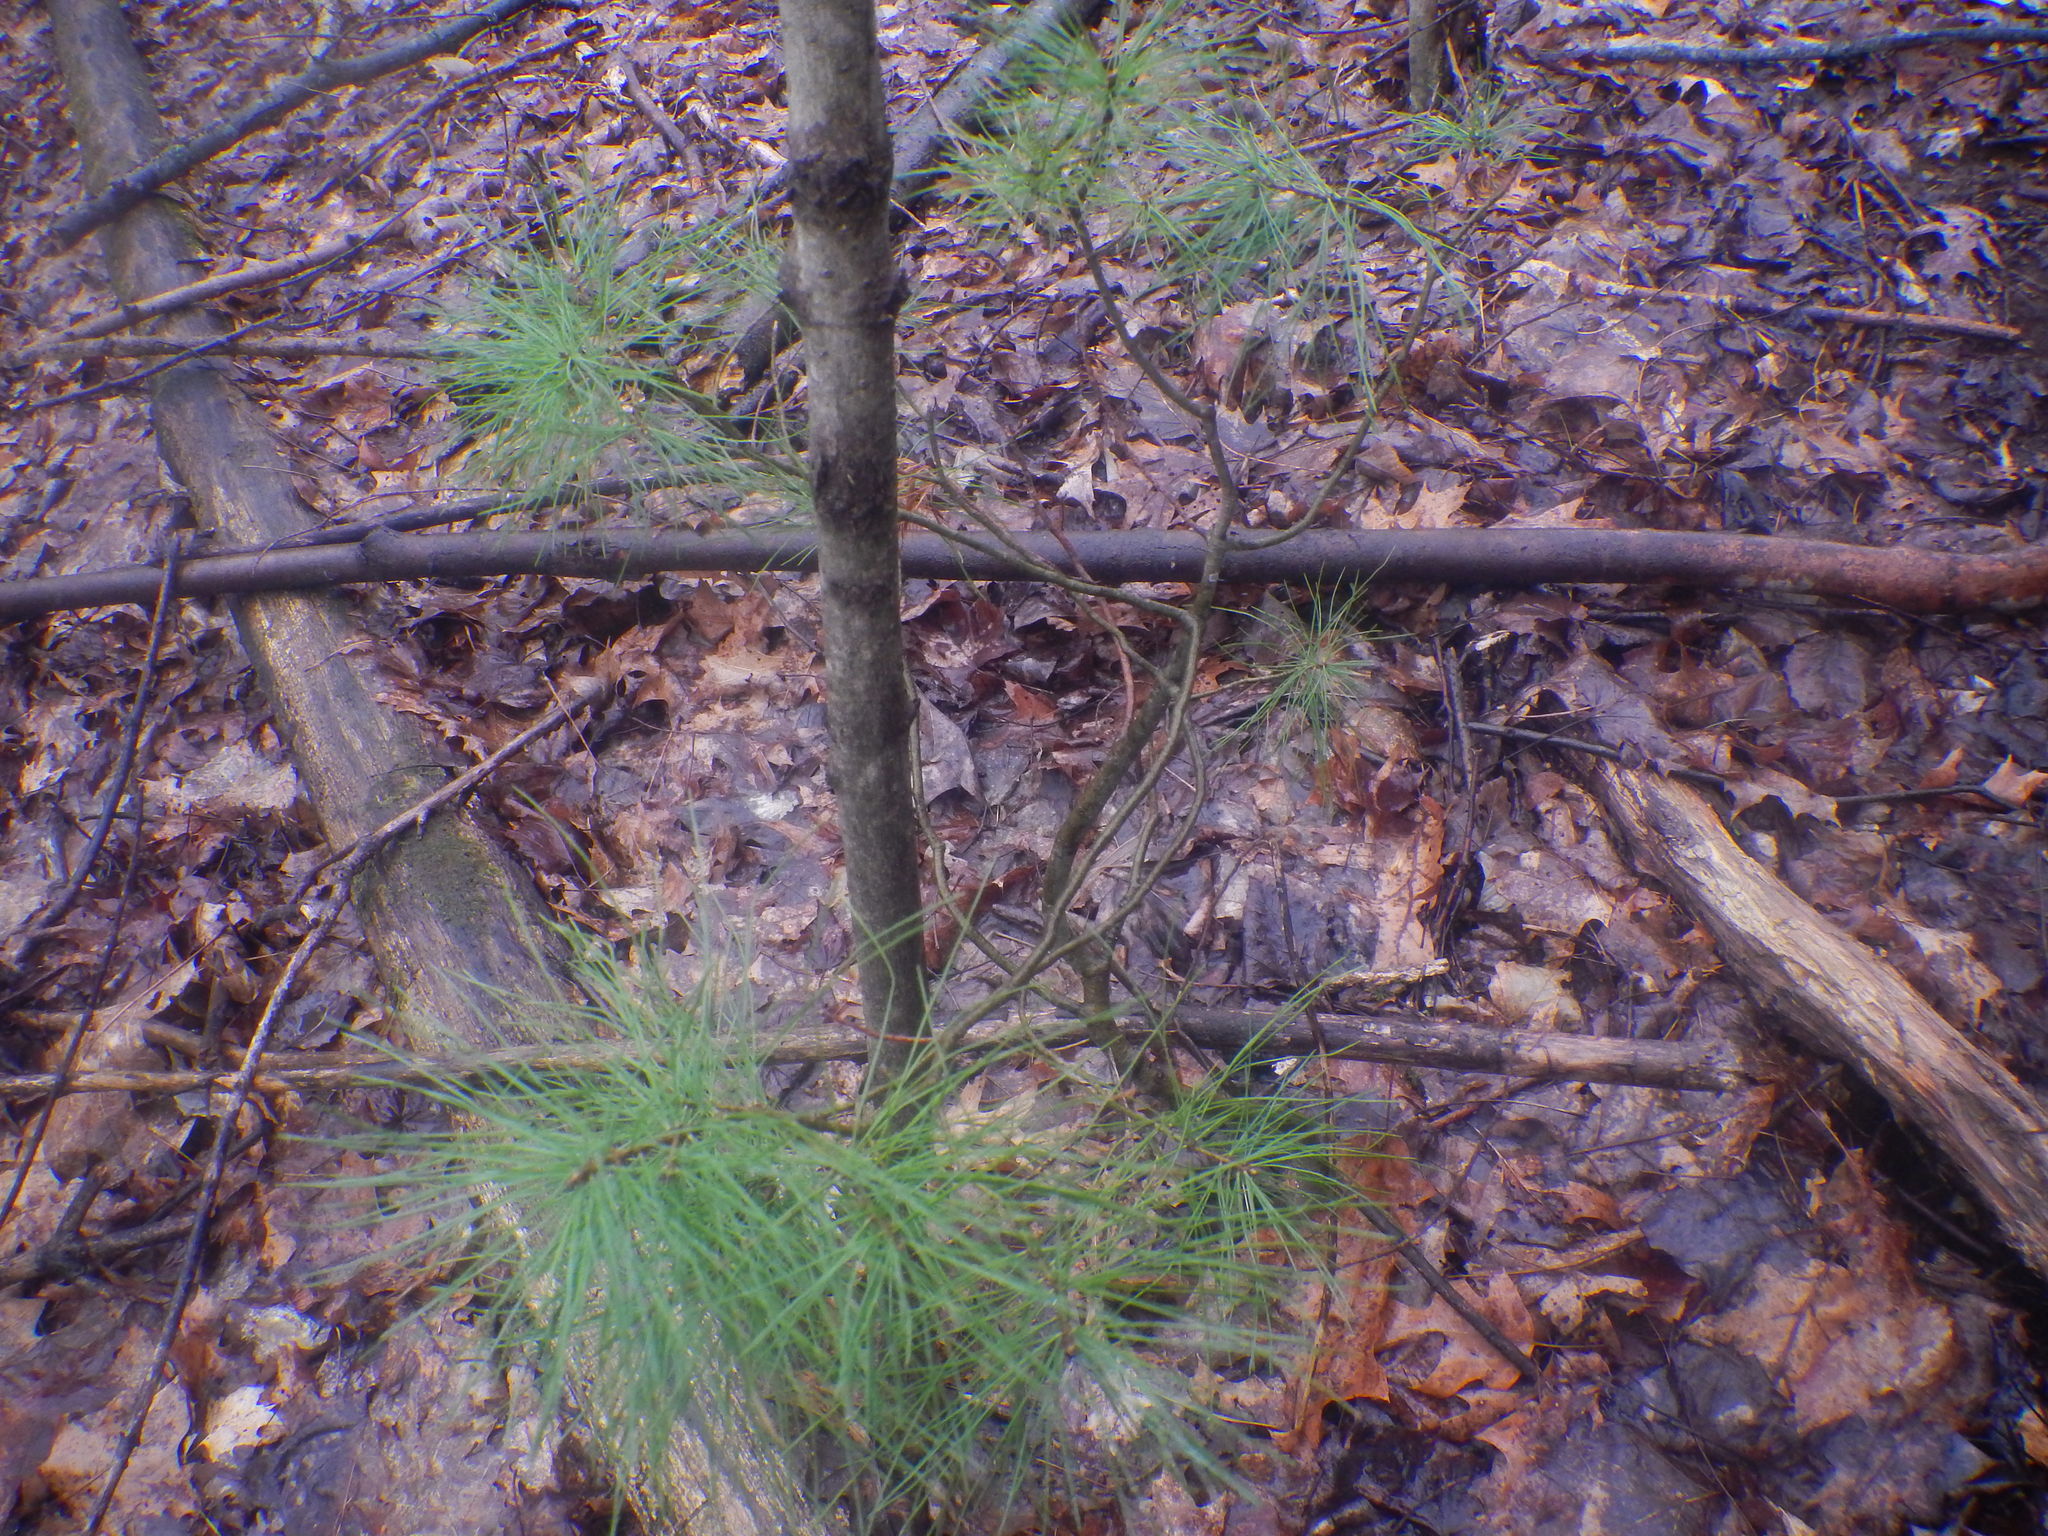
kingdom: Plantae
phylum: Tracheophyta
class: Pinopsida
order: Pinales
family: Pinaceae
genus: Pinus
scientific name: Pinus strobus
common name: Weymouth pine
